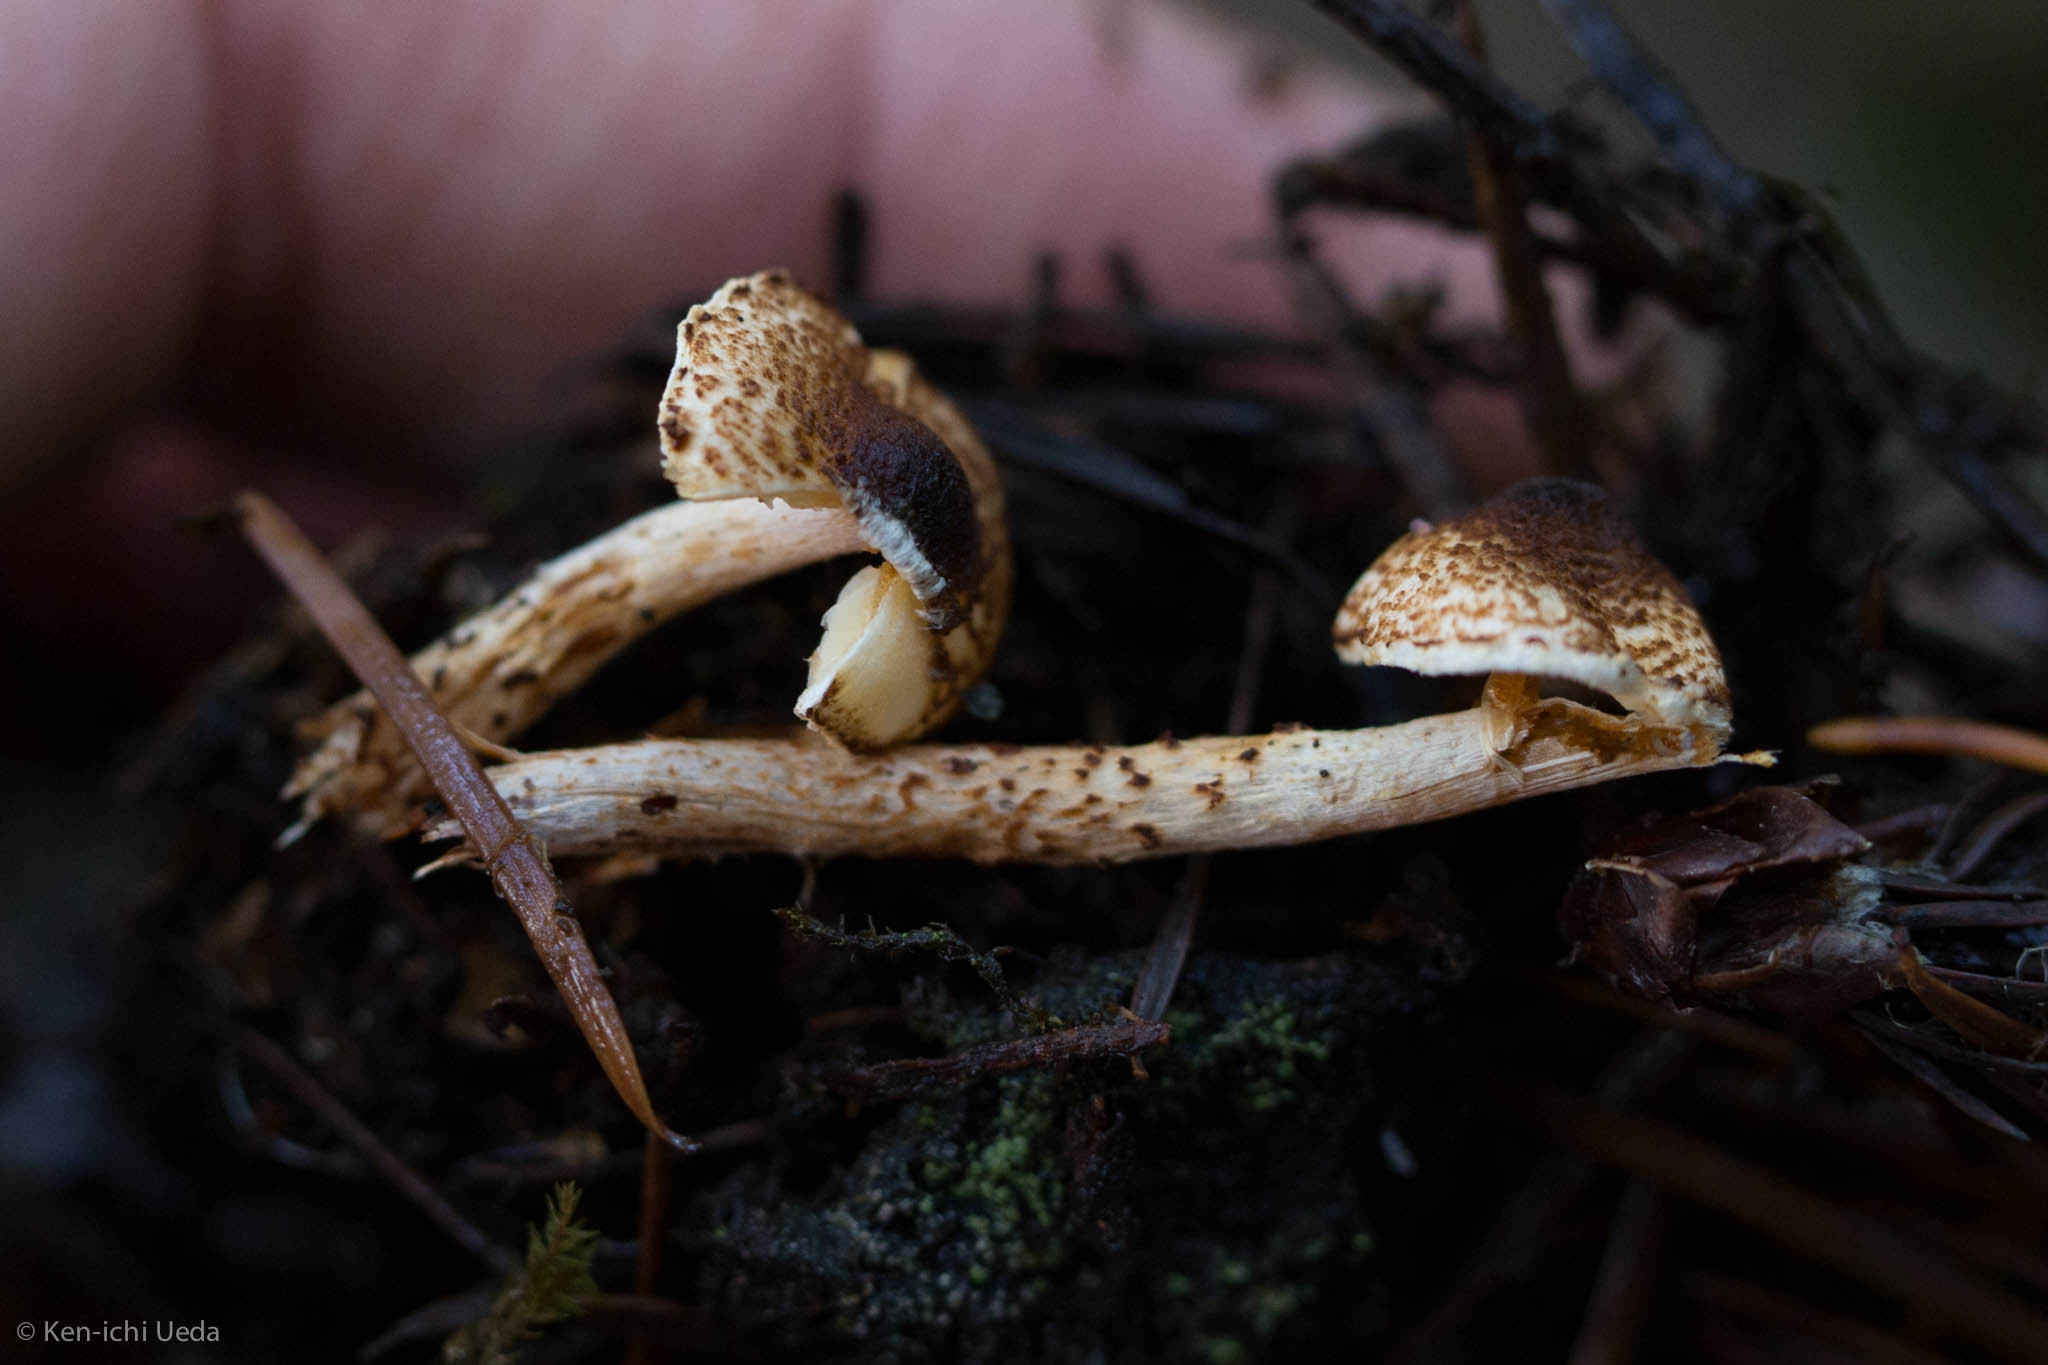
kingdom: Fungi
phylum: Basidiomycota
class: Agaricomycetes
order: Agaricales
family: Agaricaceae
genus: Lepiota
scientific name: Lepiota castanea
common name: Chestnut dapperling
